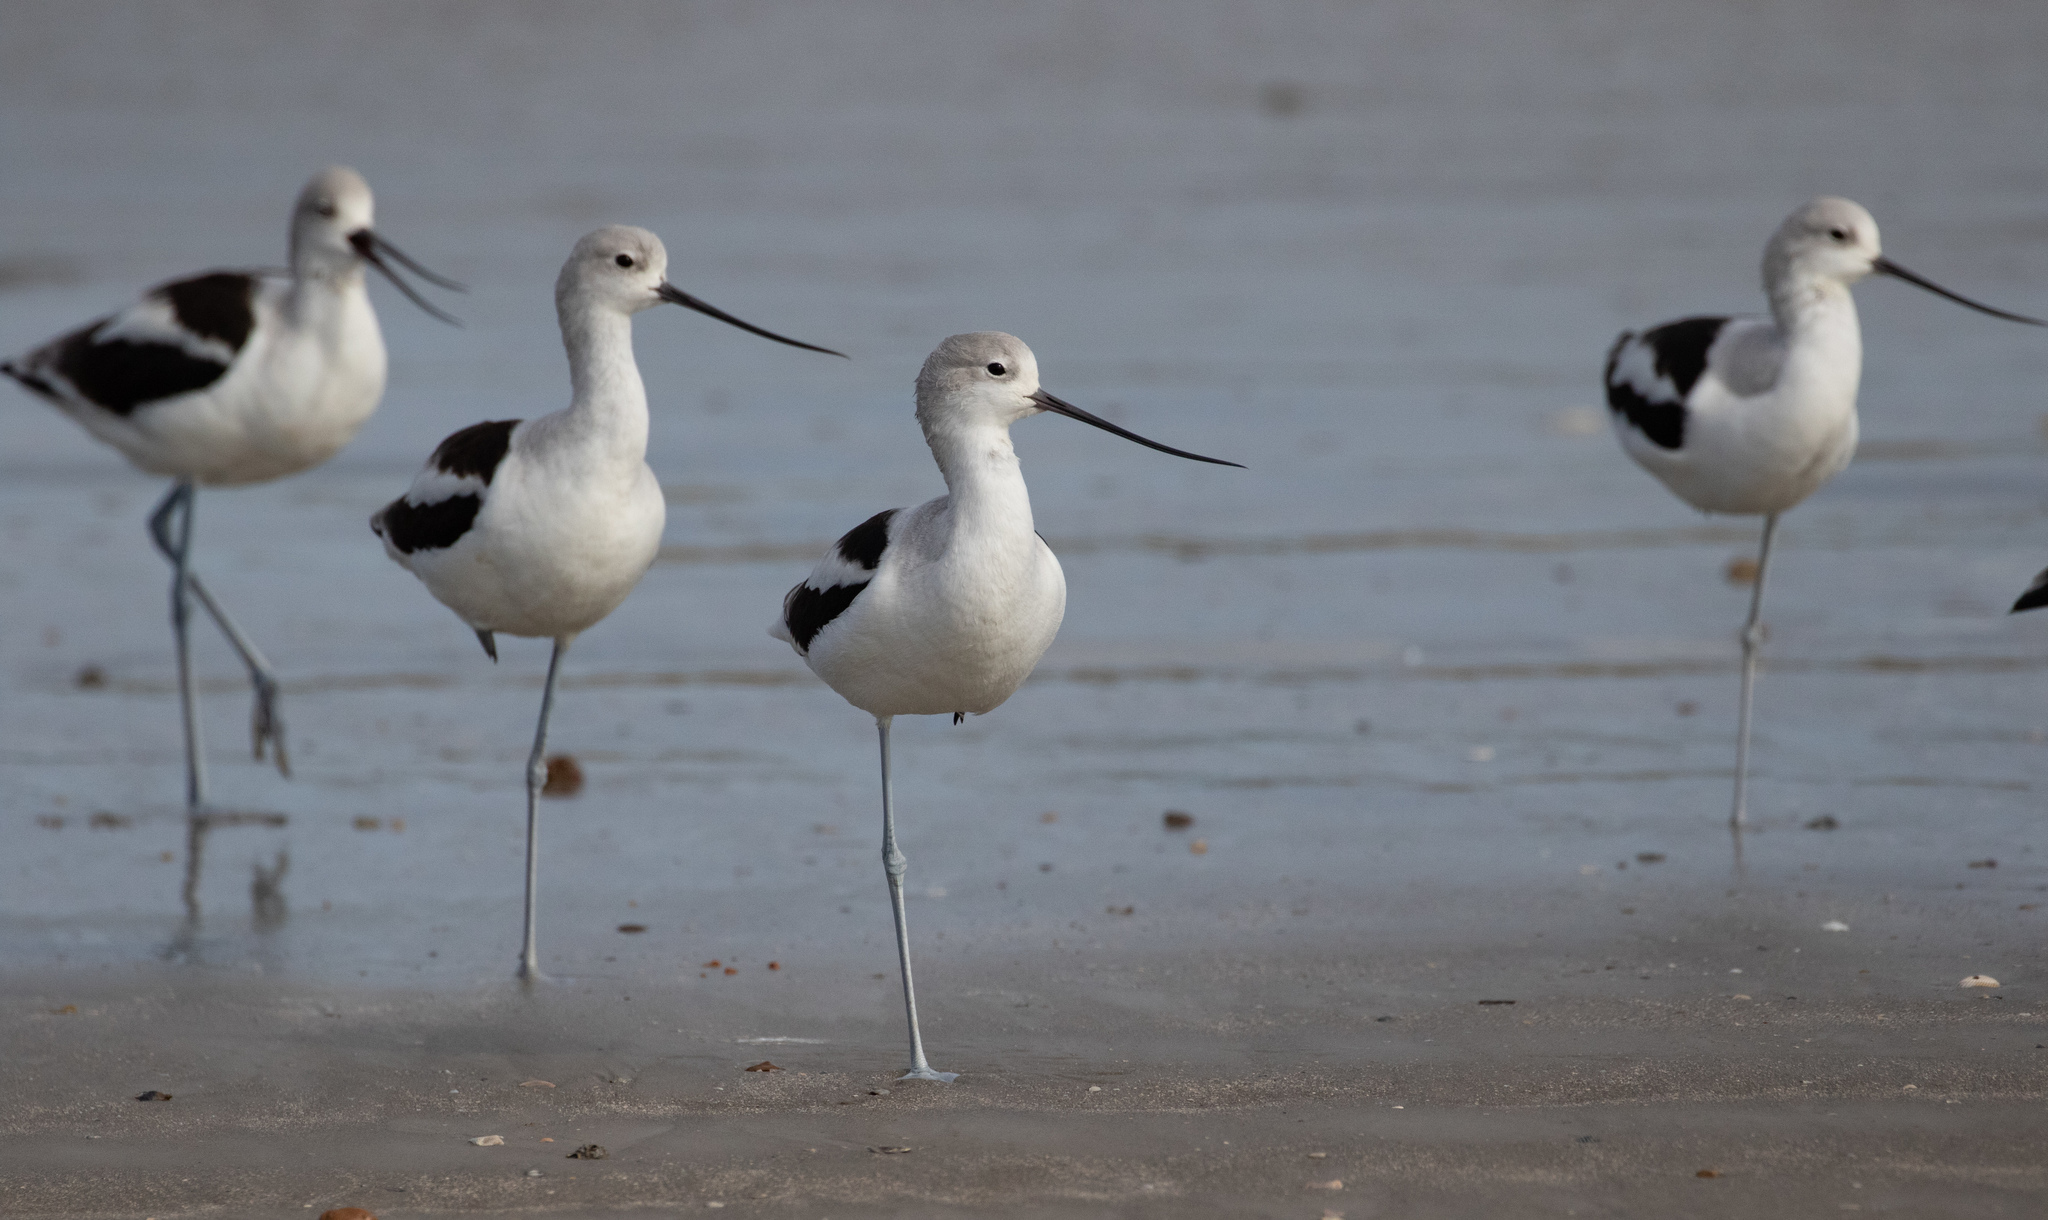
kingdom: Animalia
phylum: Chordata
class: Aves
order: Charadriiformes
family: Recurvirostridae
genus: Recurvirostra
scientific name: Recurvirostra americana
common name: American avocet
